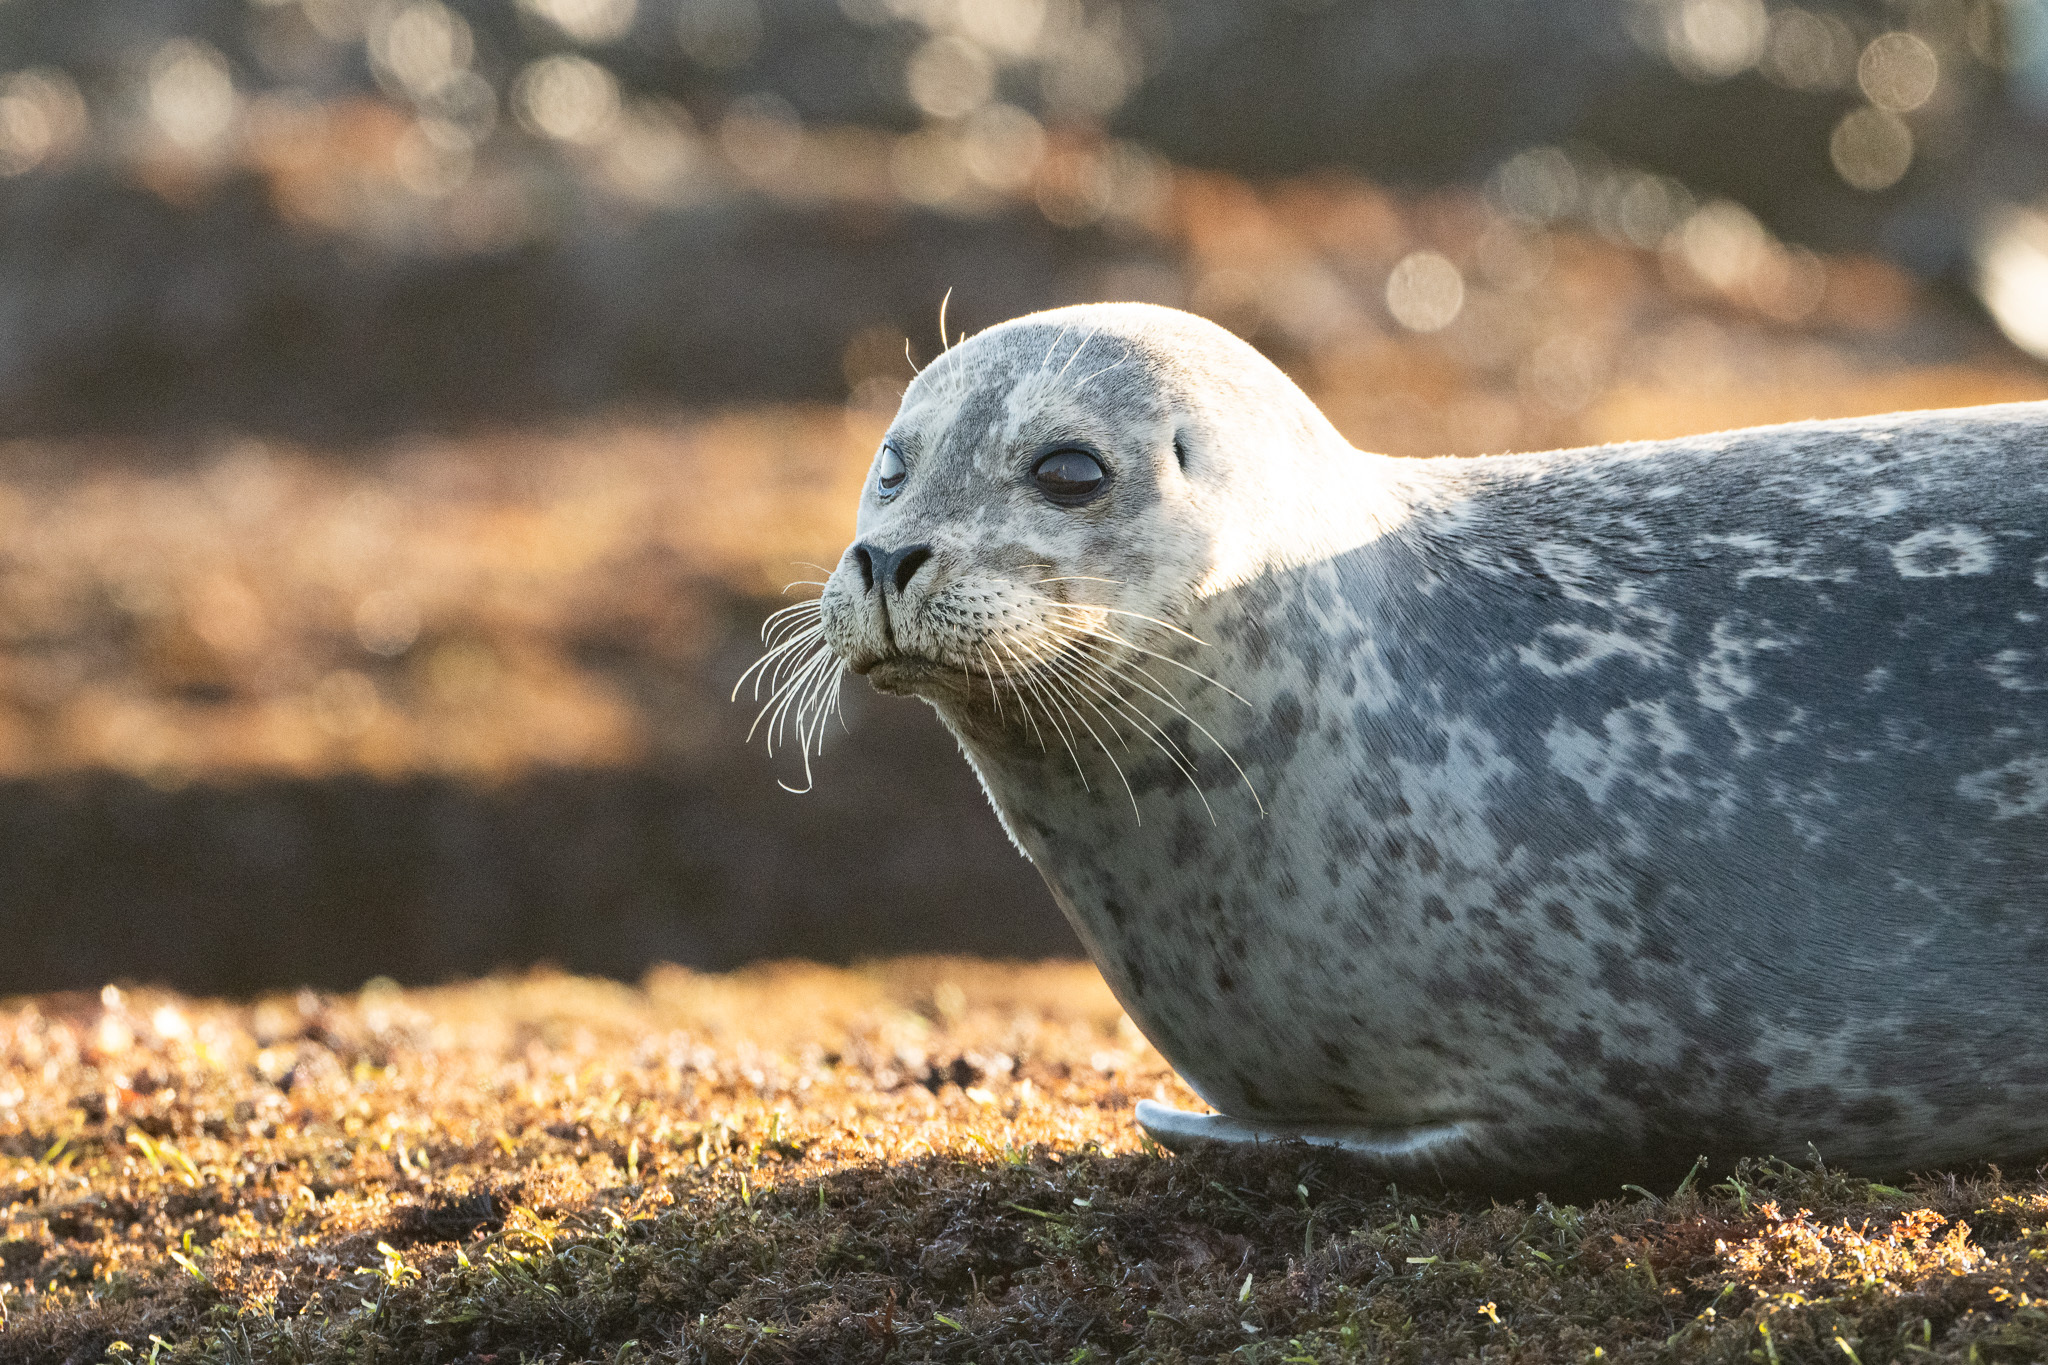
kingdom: Animalia
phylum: Chordata
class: Mammalia
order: Carnivora
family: Phocidae
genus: Phoca
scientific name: Phoca vitulina
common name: Harbor seal
